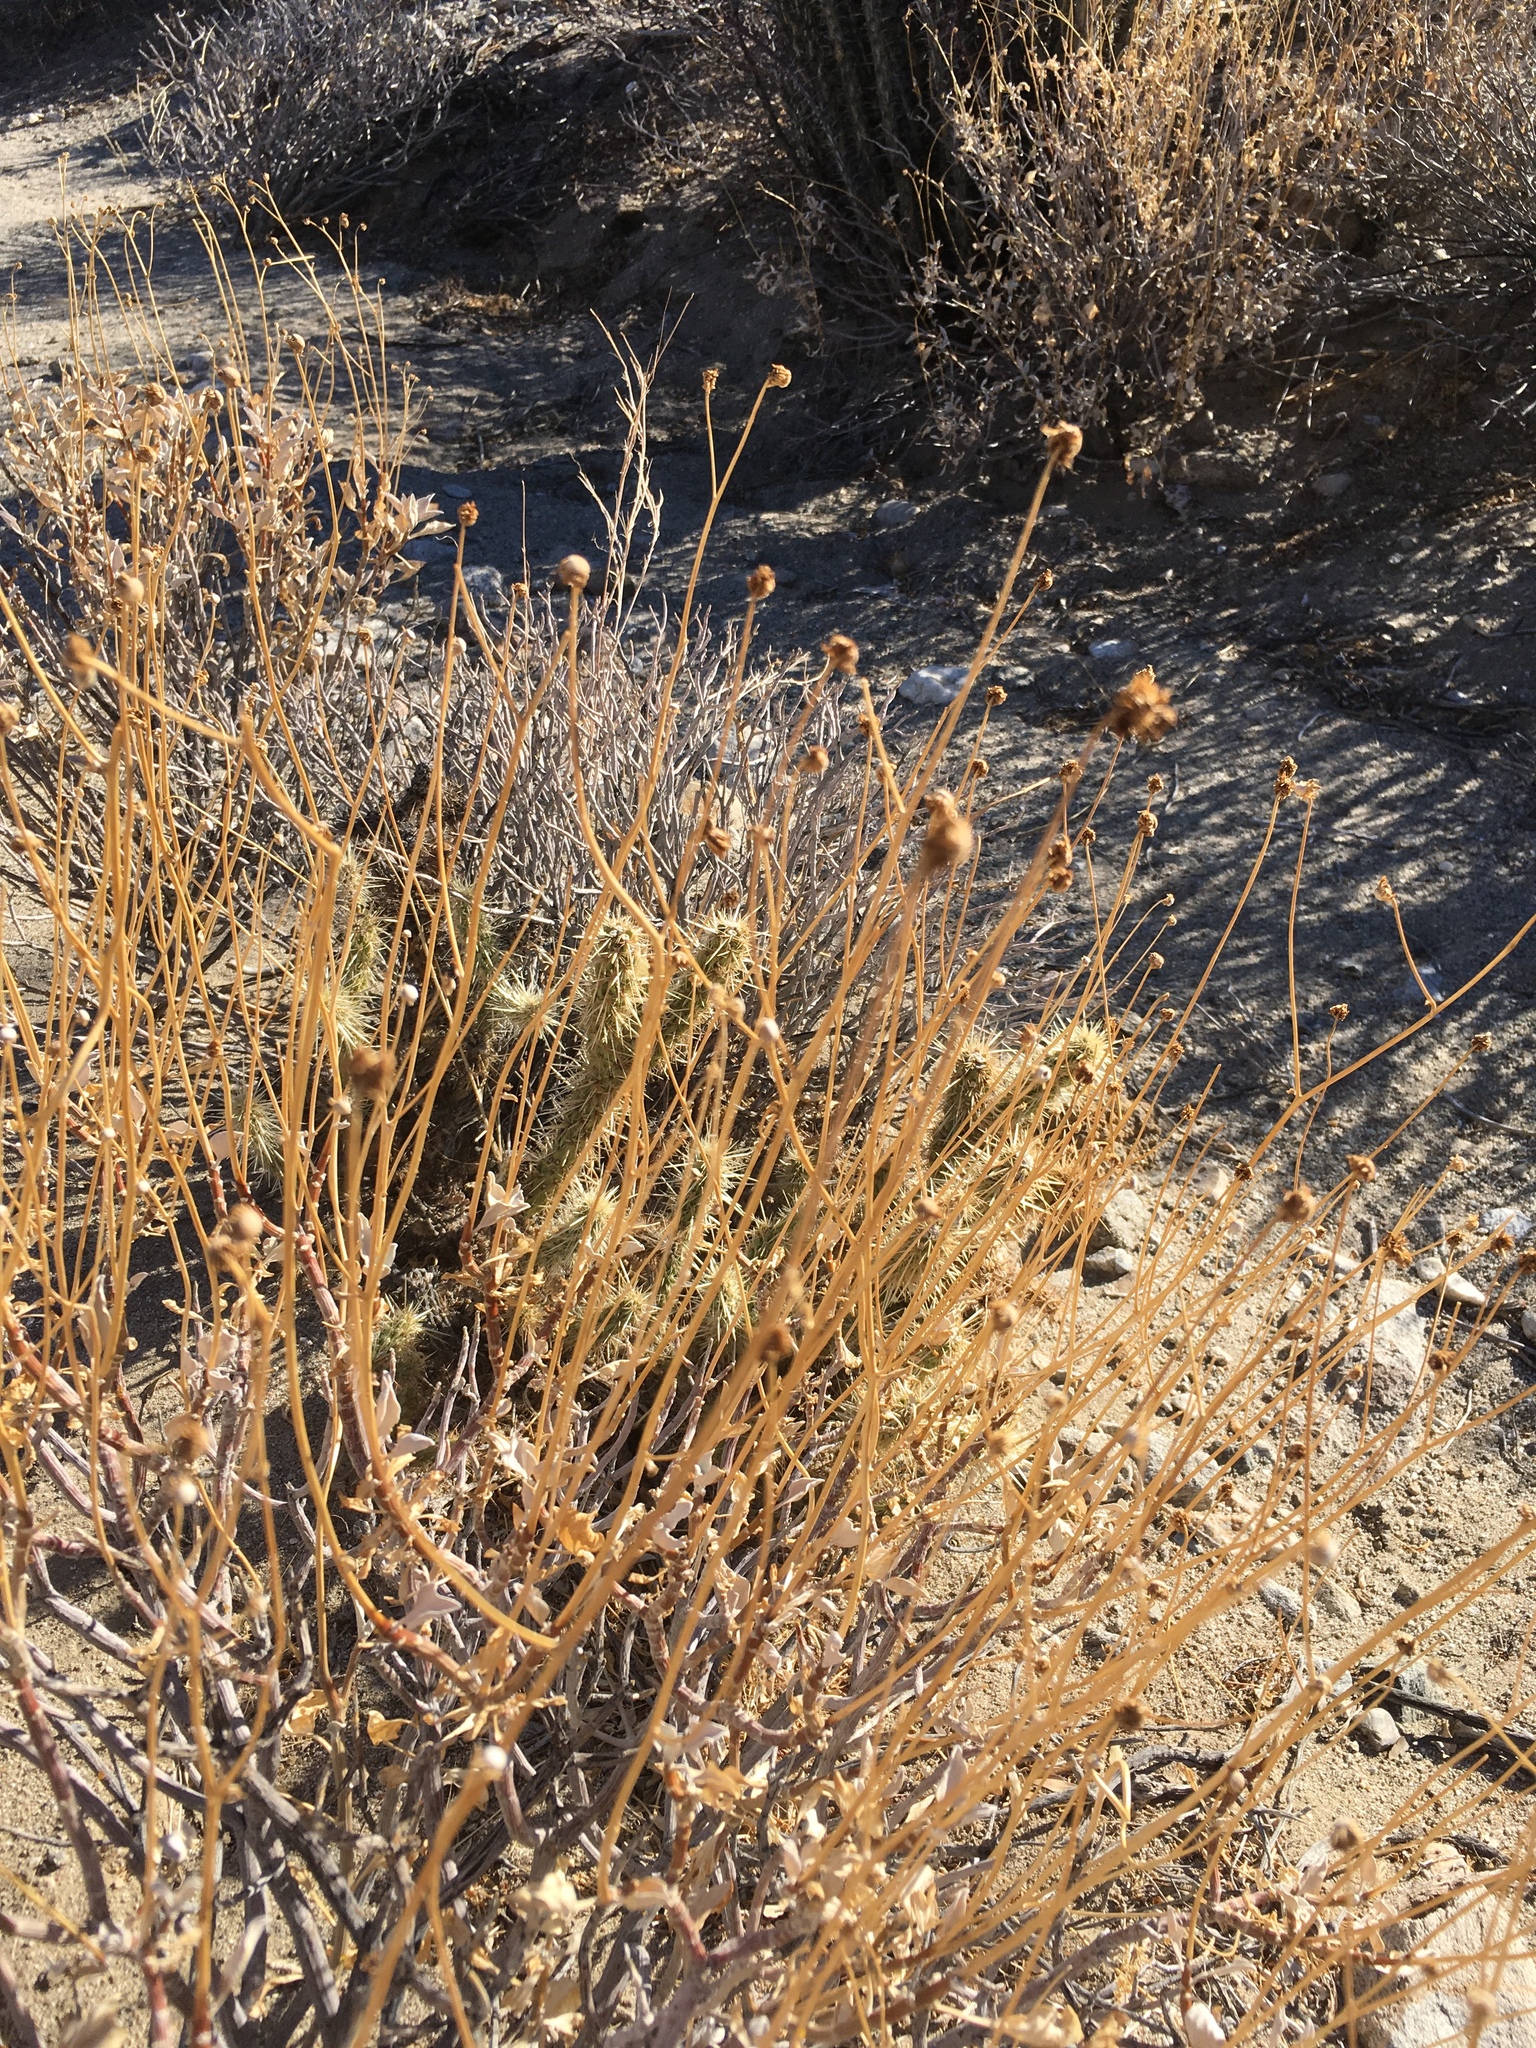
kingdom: Plantae
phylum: Tracheophyta
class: Magnoliopsida
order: Asterales
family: Asteraceae
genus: Encelia
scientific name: Encelia farinosa
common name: Brittlebush
